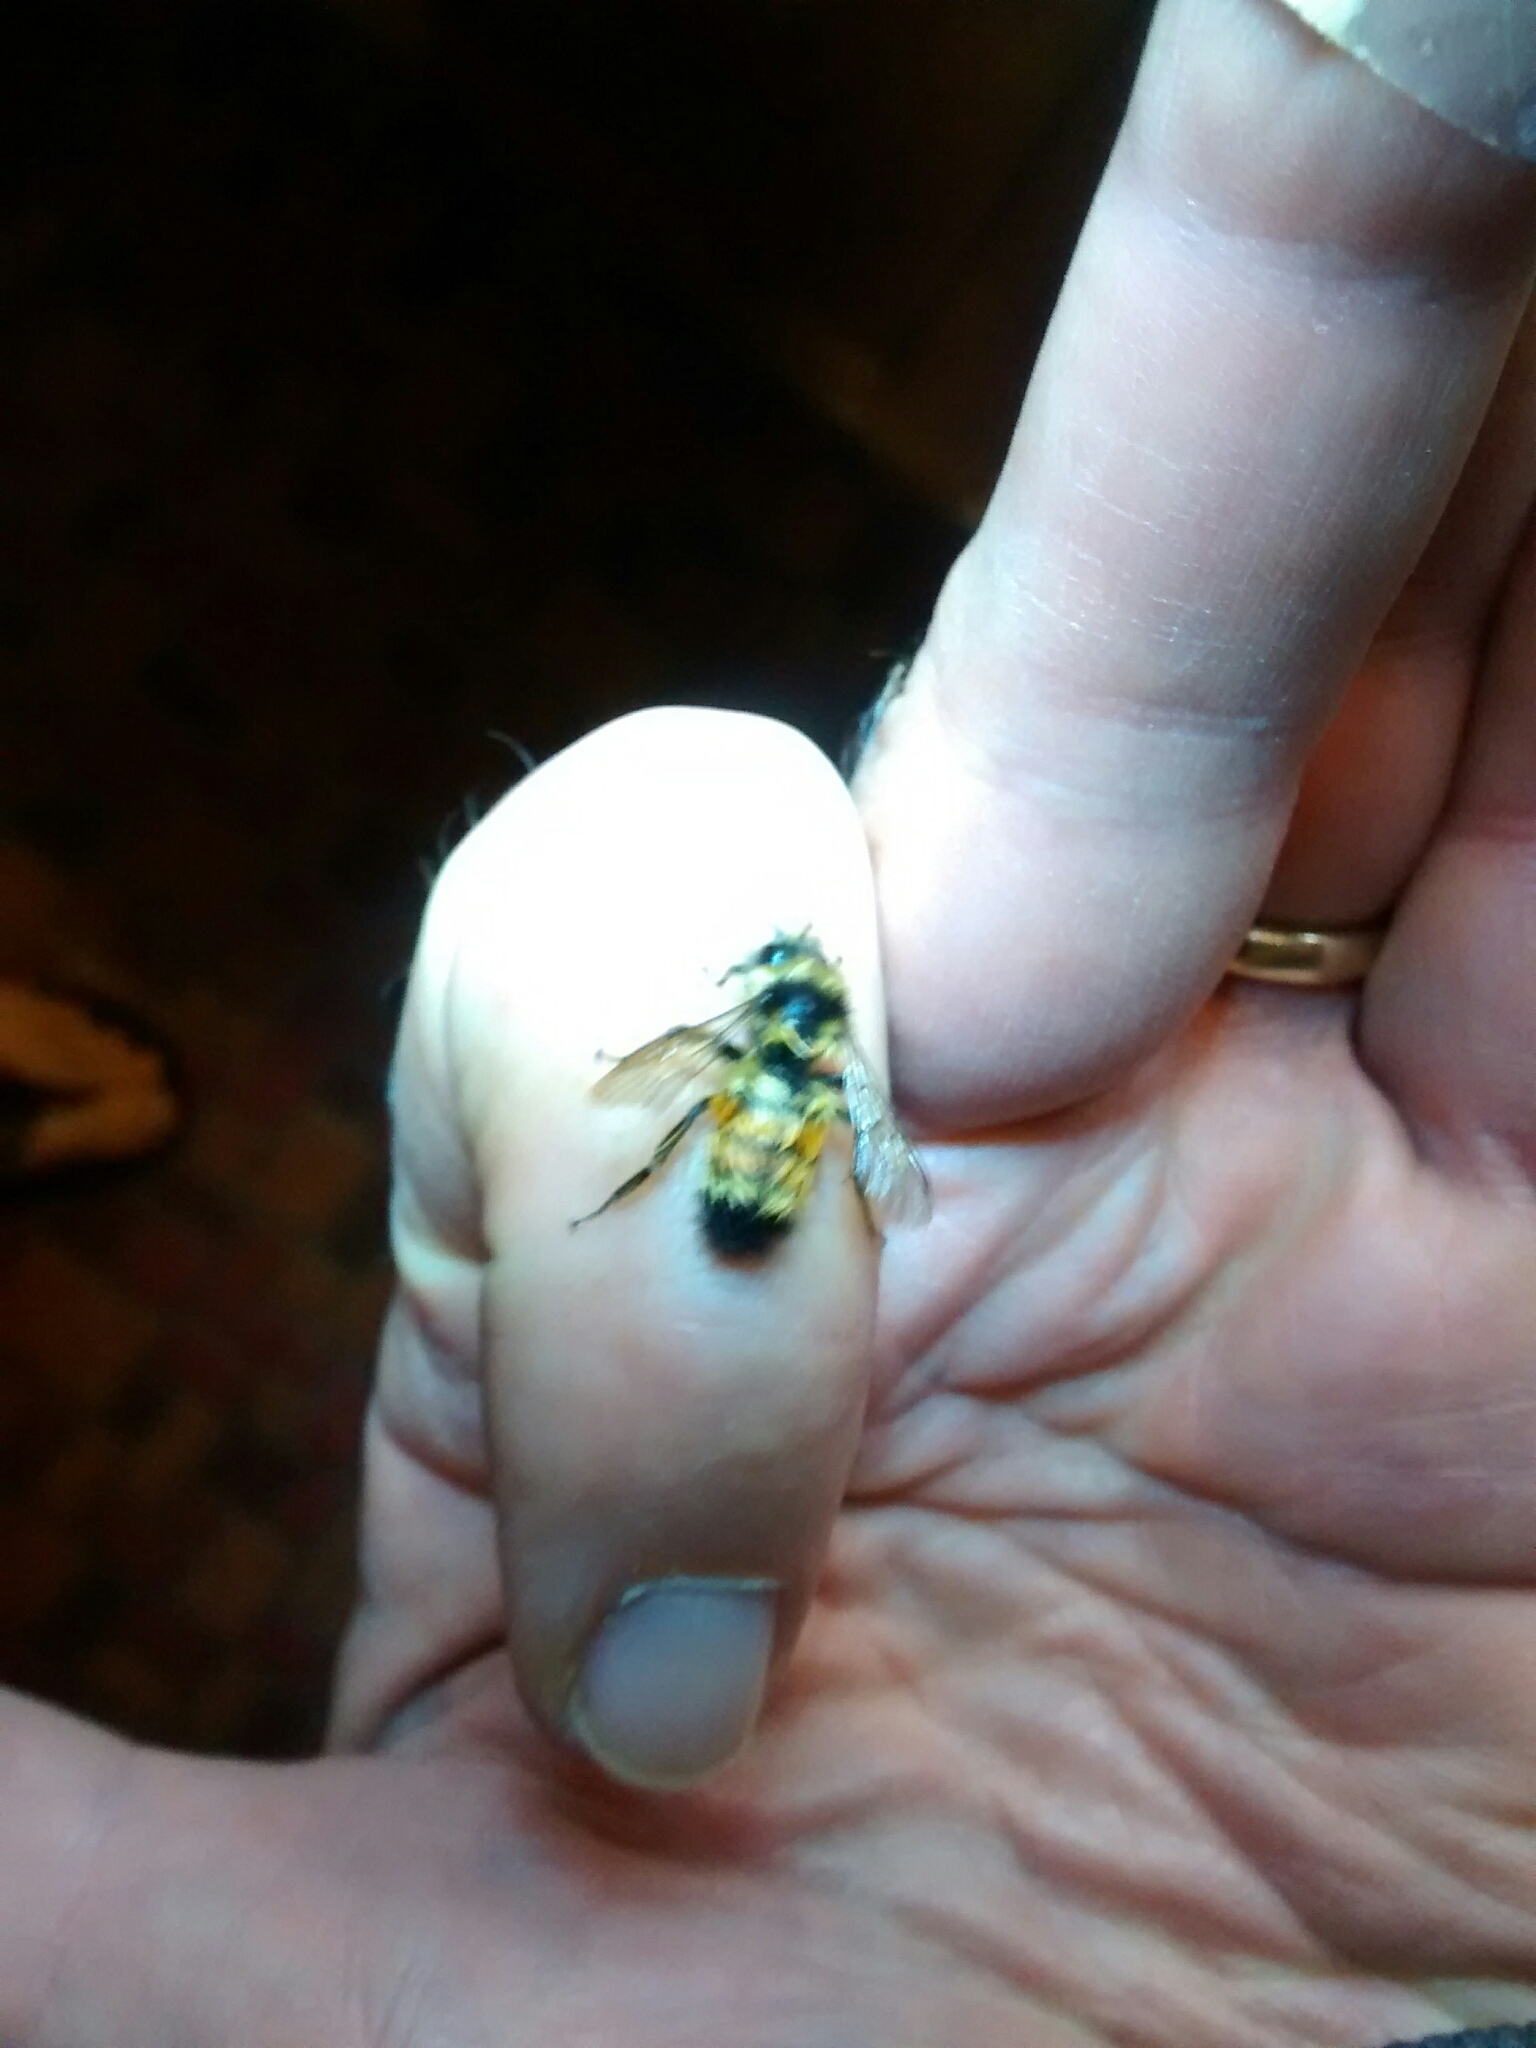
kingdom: Animalia
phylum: Arthropoda
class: Insecta
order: Hymenoptera
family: Apidae
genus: Bombus
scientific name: Bombus ternarius
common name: Tri-colored bumble bee
